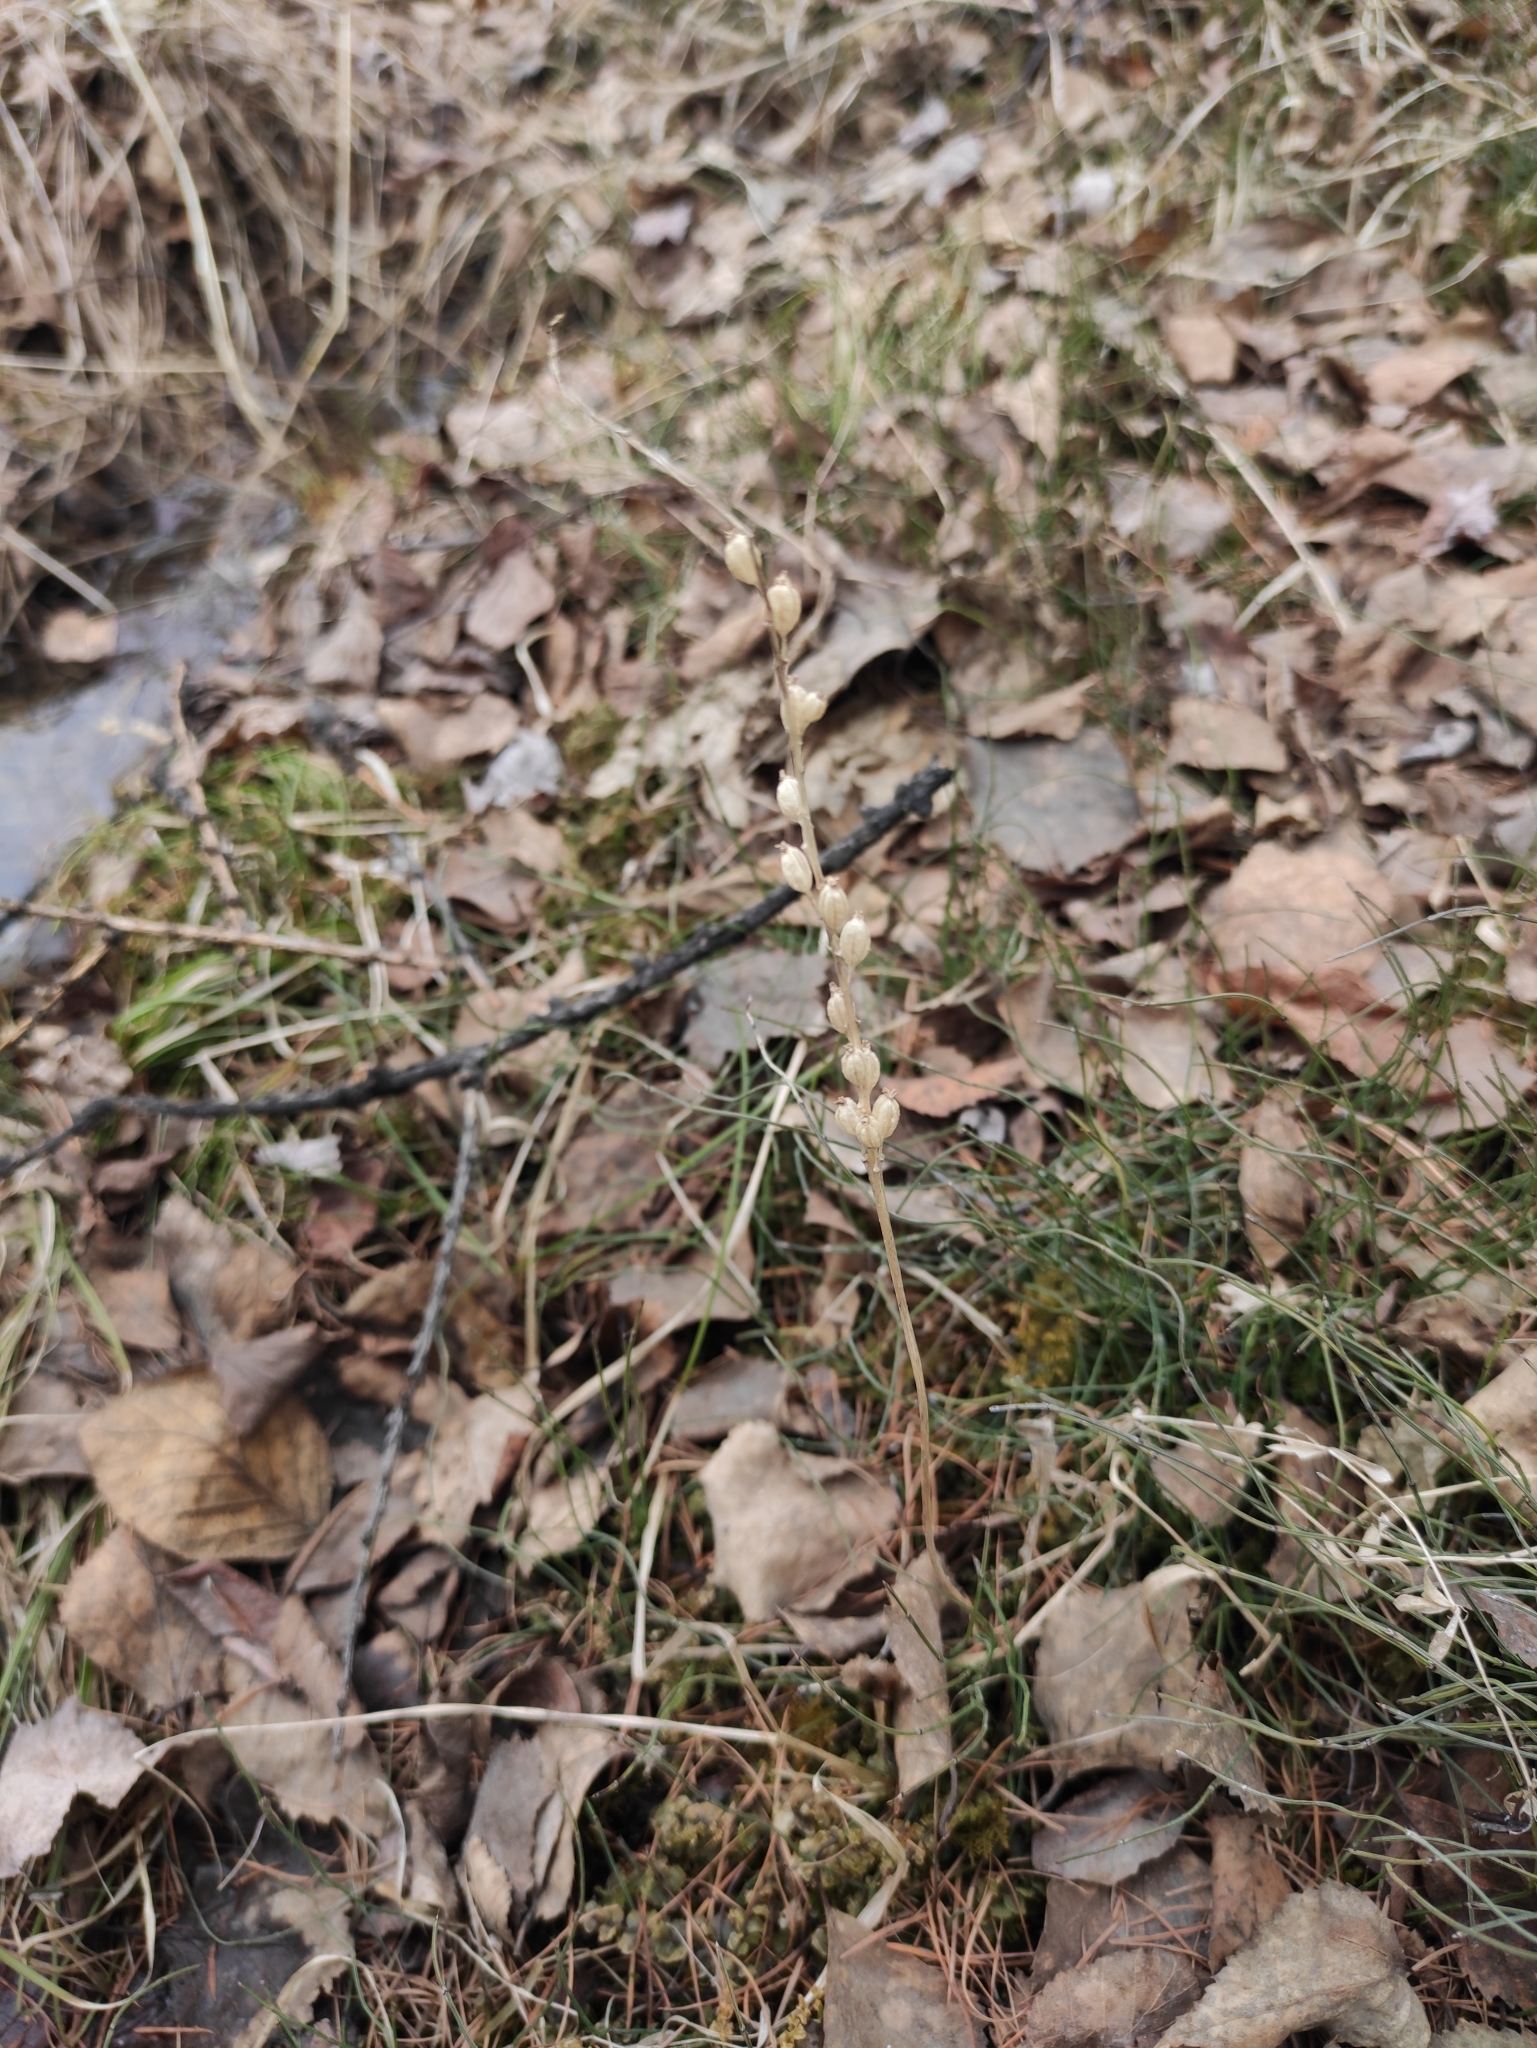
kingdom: Plantae
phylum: Tracheophyta
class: Liliopsida
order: Asparagales
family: Orchidaceae
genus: Malaxis
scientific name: Malaxis monophyllos
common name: White adder's-mouth
